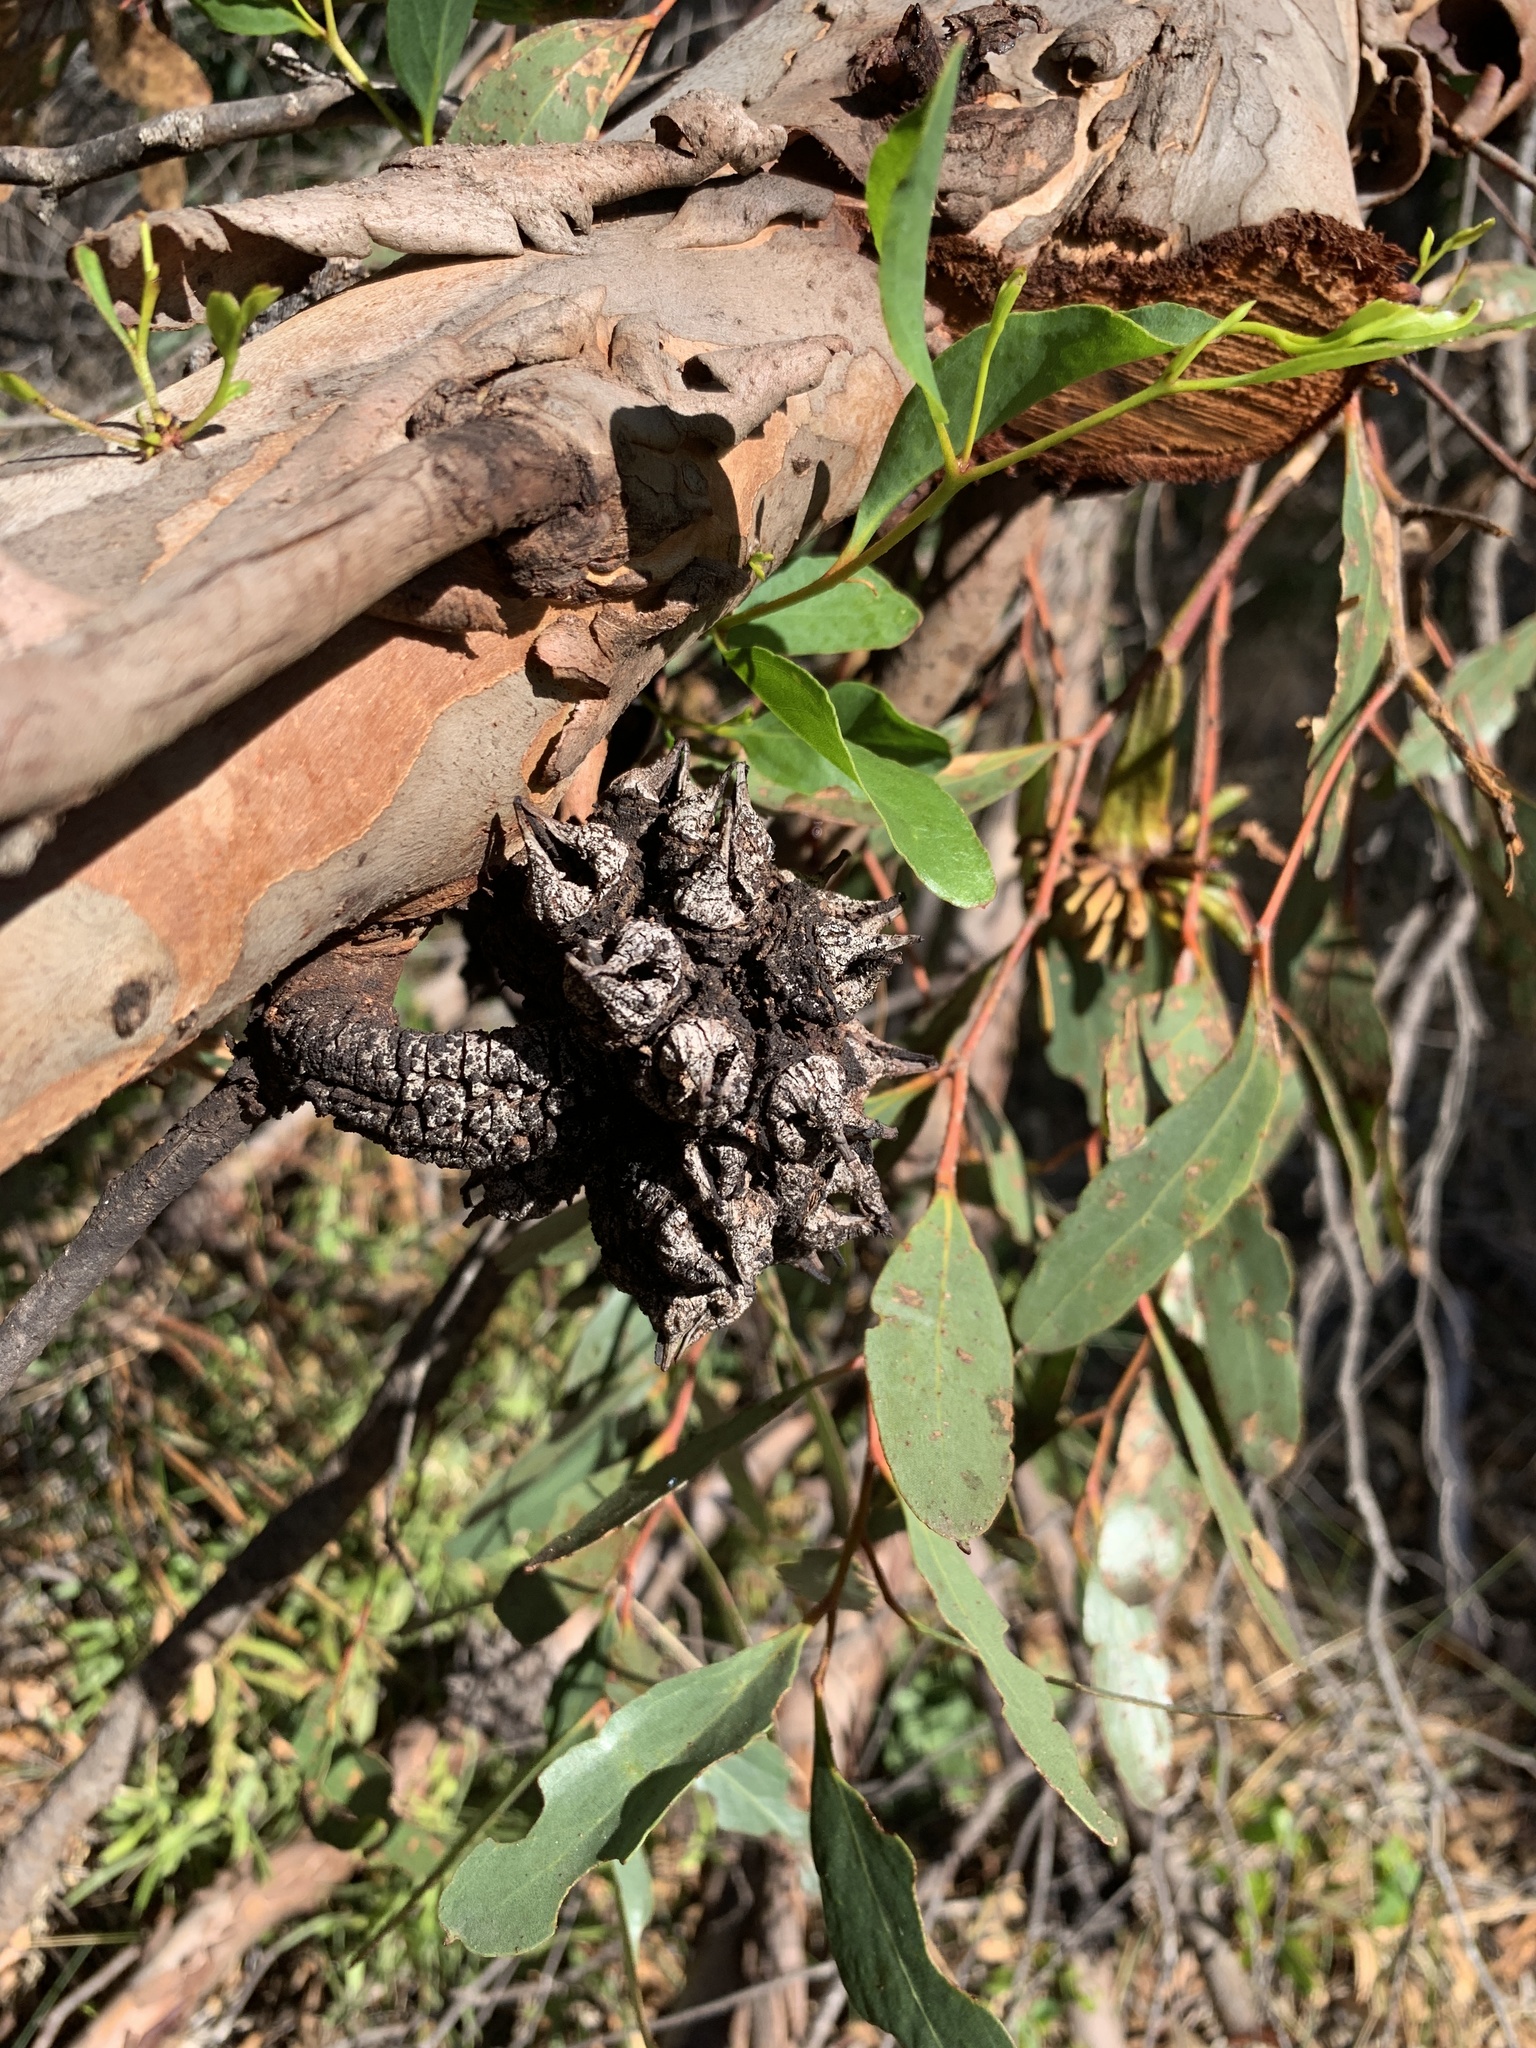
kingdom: Plantae
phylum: Tracheophyta
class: Magnoliopsida
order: Myrtales
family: Myrtaceae
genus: Eucalyptus
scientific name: Eucalyptus conferruminata
